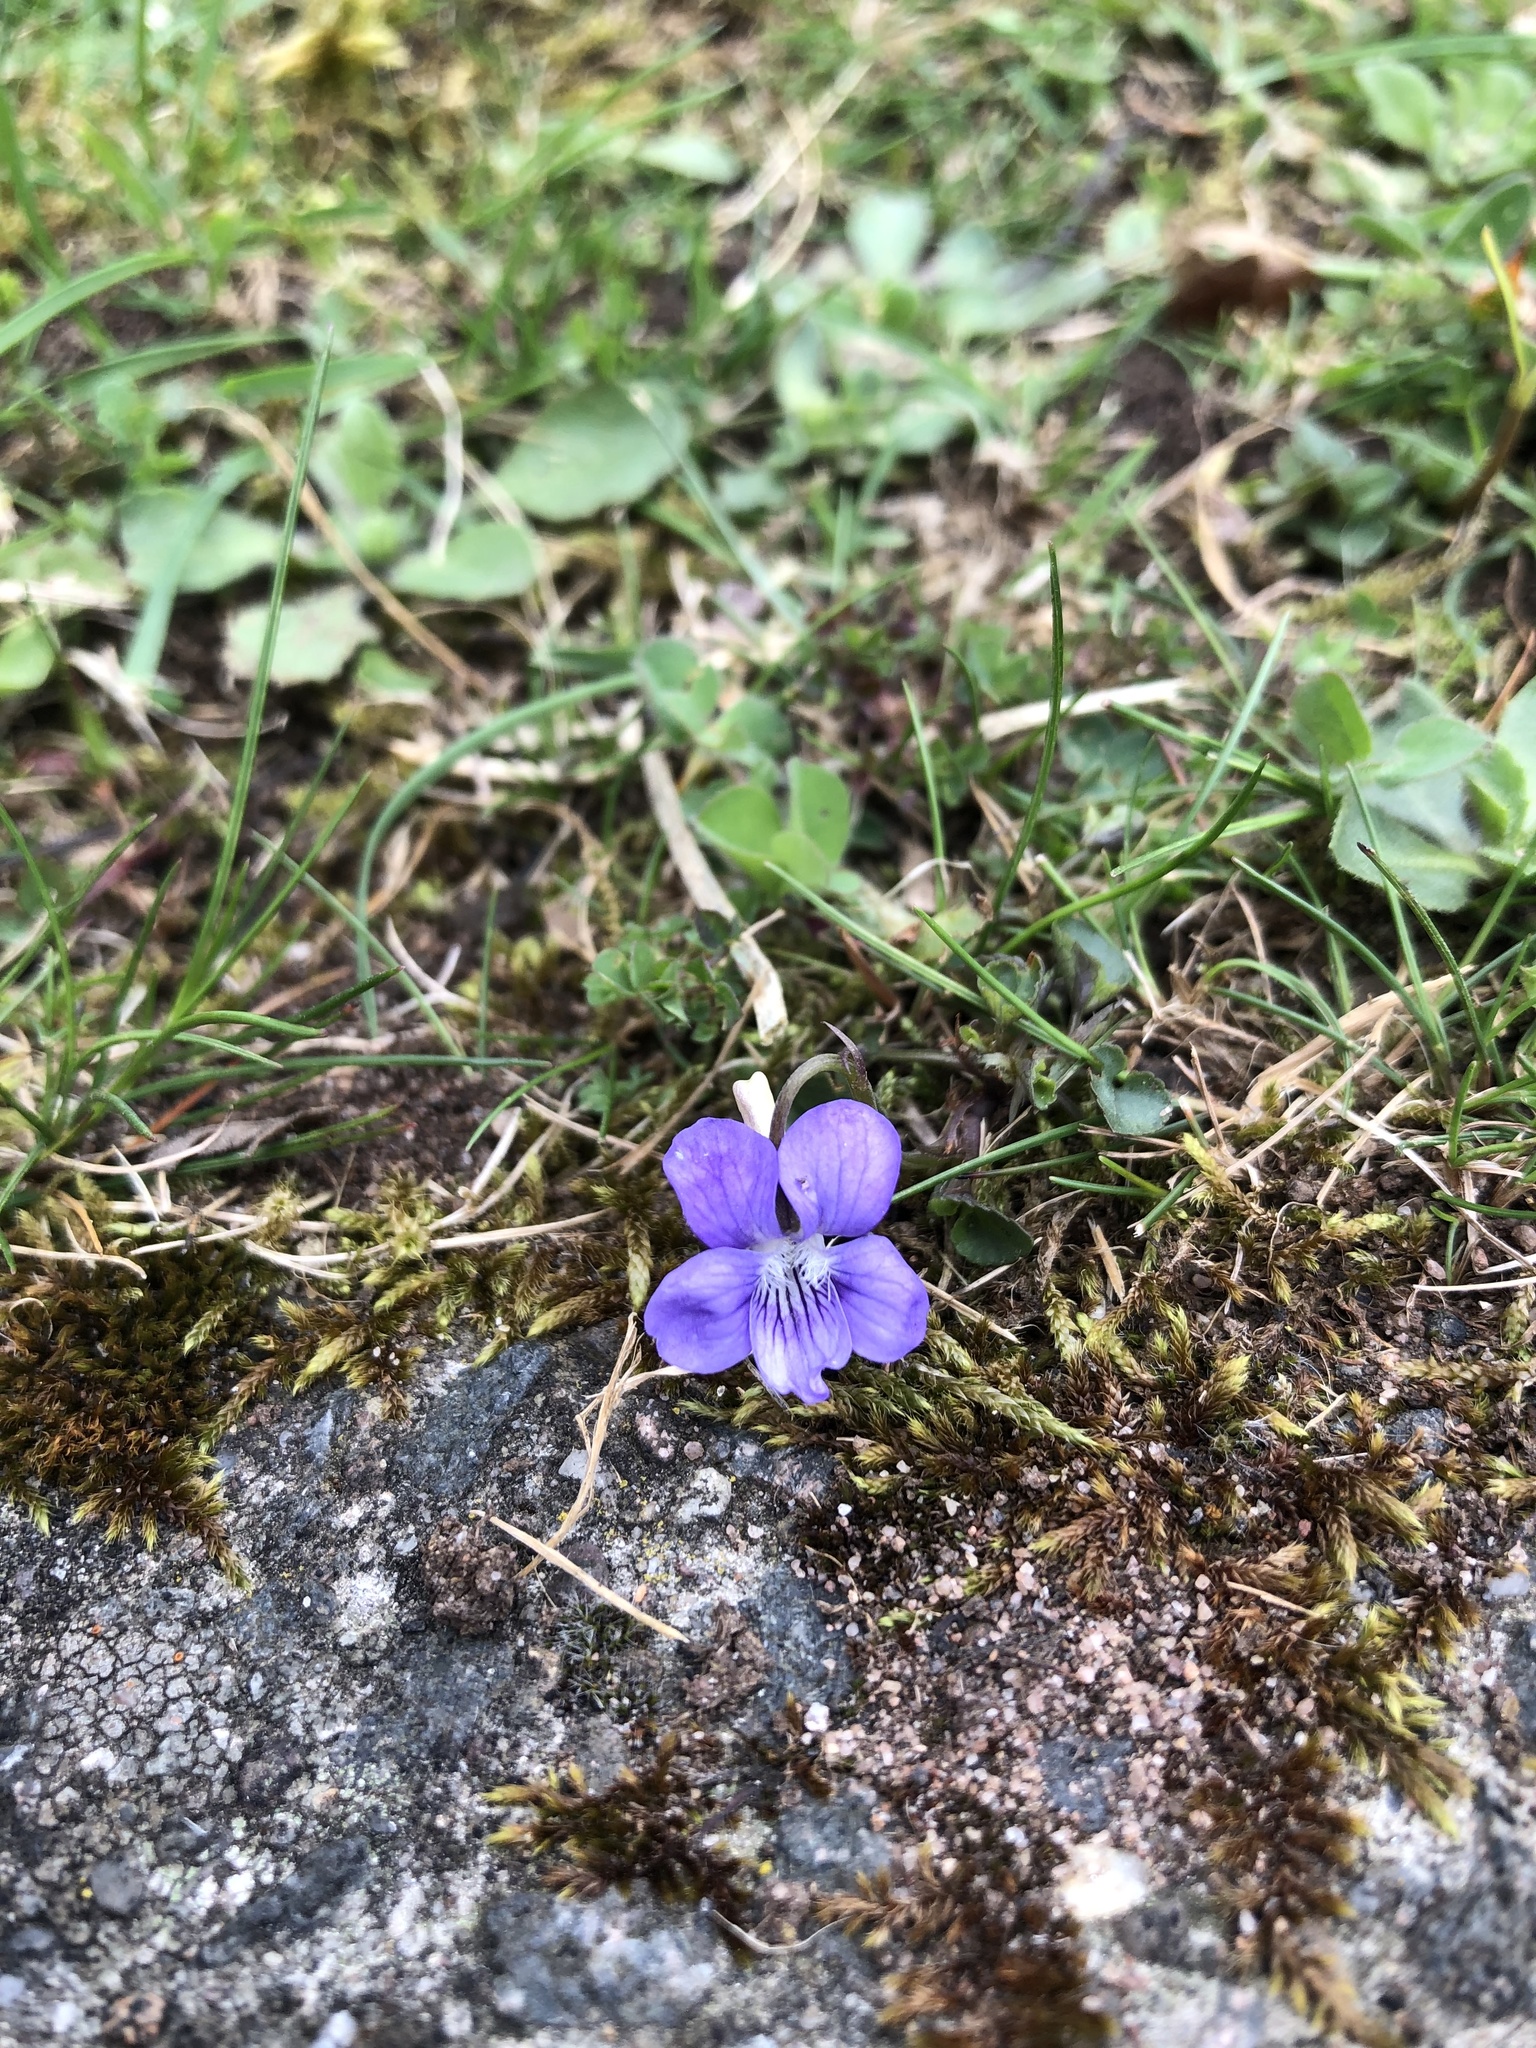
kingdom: Plantae
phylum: Tracheophyta
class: Magnoliopsida
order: Malpighiales
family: Violaceae
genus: Viola
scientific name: Viola riviniana
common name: Common dog-violet
